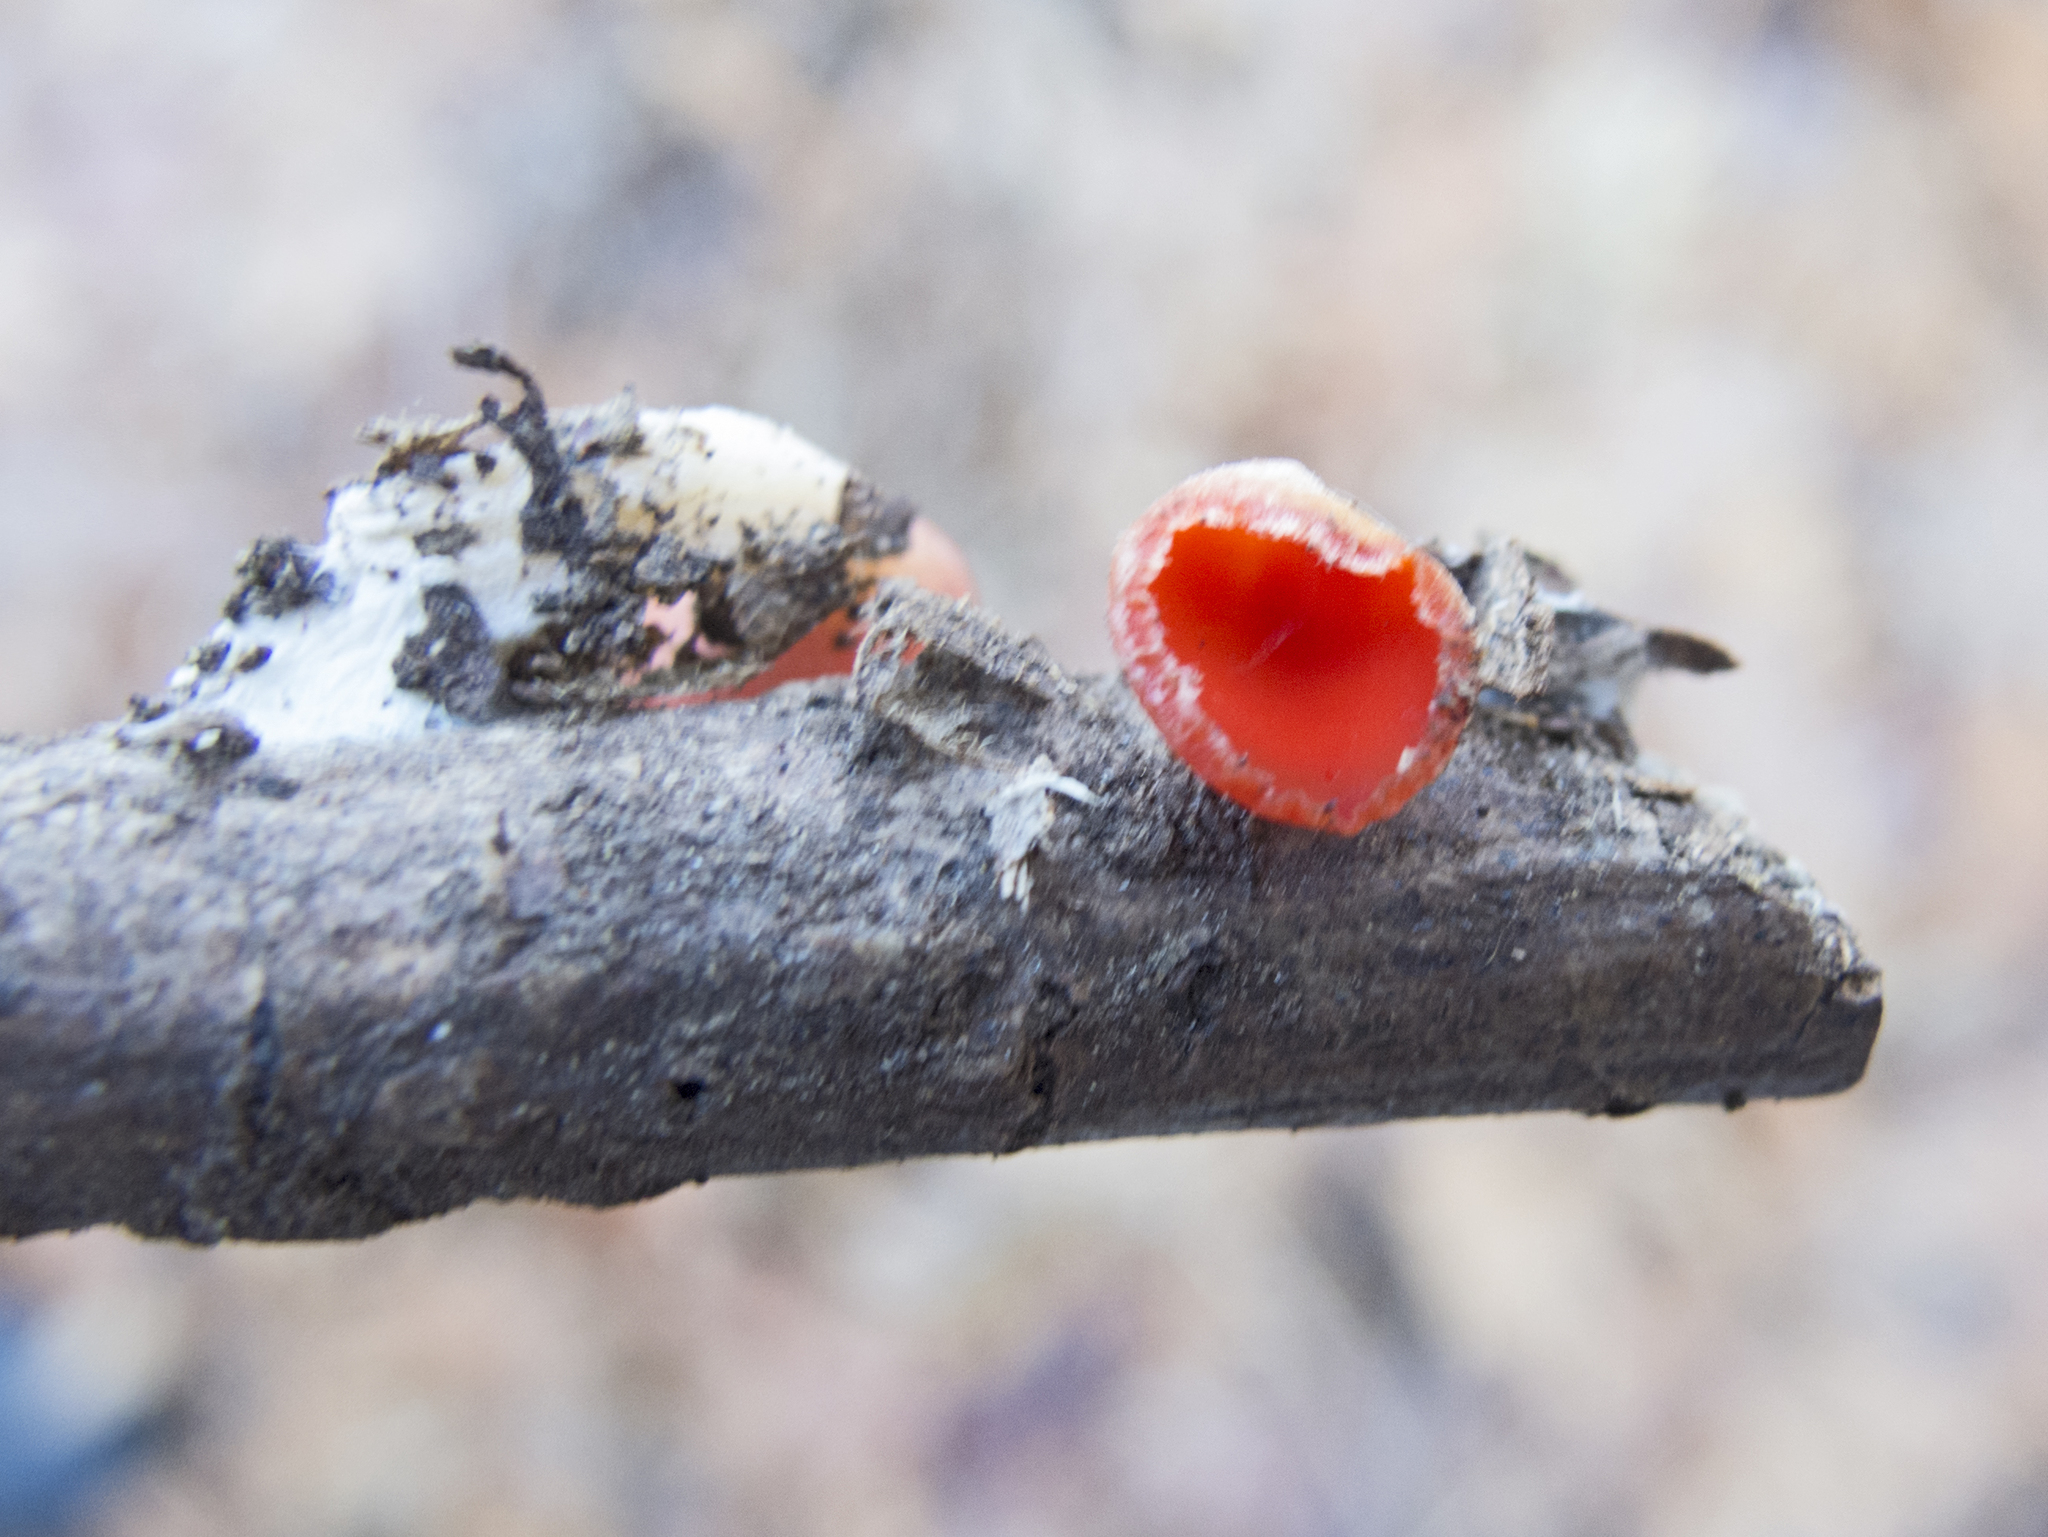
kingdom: Fungi
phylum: Ascomycota
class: Pezizomycetes
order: Pezizales
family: Sarcoscyphaceae
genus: Sarcoscypha
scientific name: Sarcoscypha
